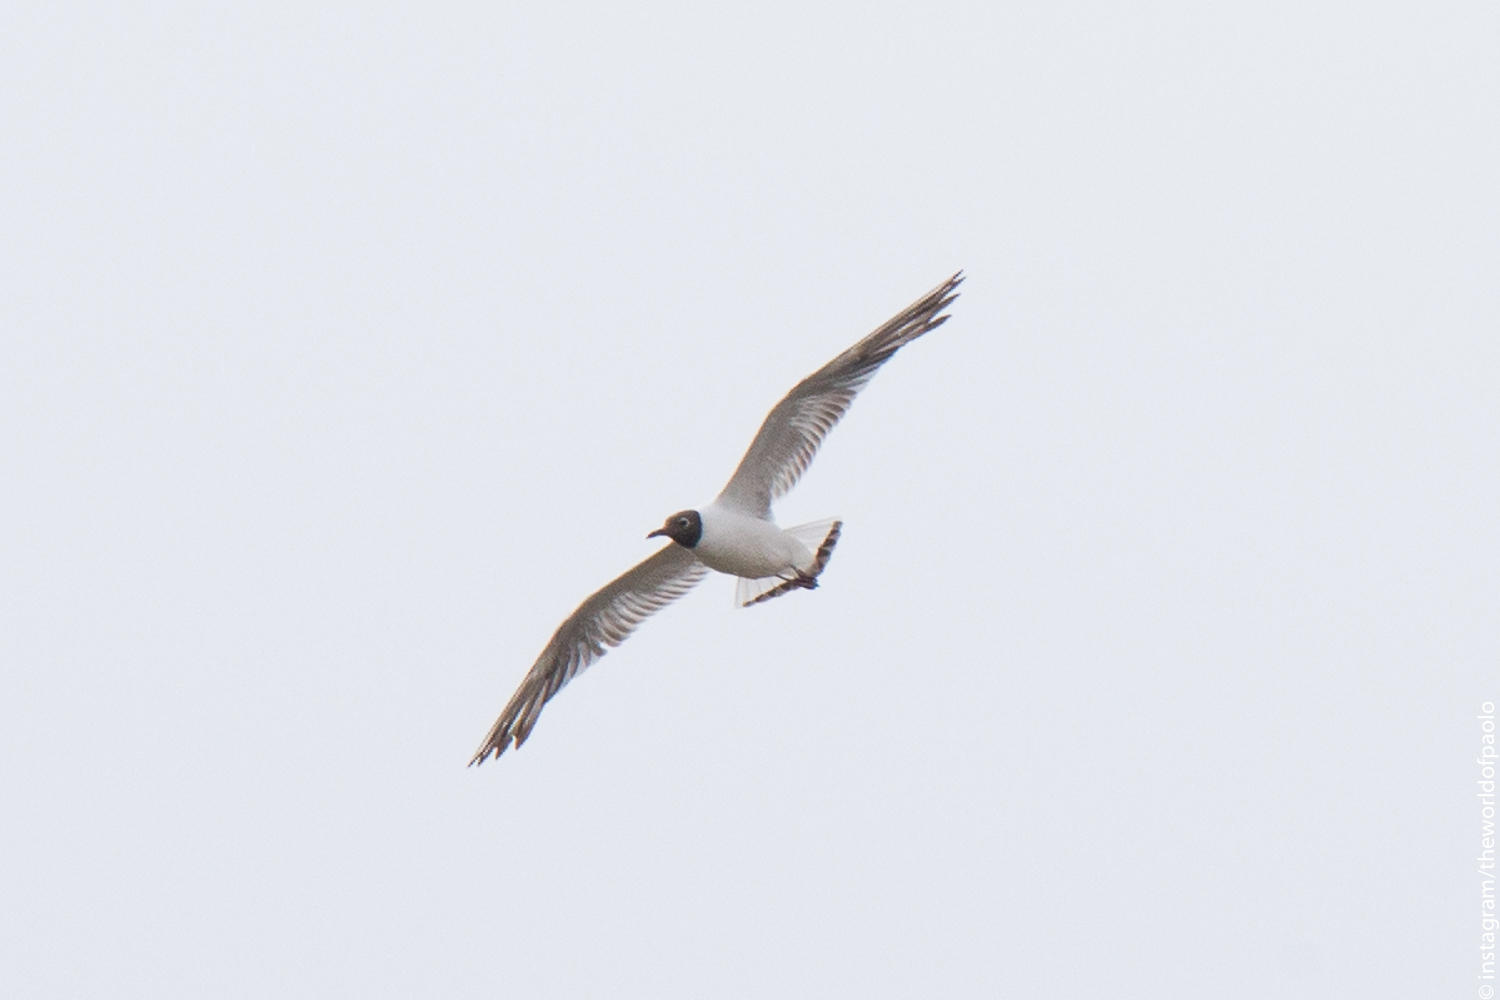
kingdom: Animalia
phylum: Chordata
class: Aves
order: Charadriiformes
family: Laridae
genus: Chroicocephalus
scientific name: Chroicocephalus ridibundus
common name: Black-headed gull
